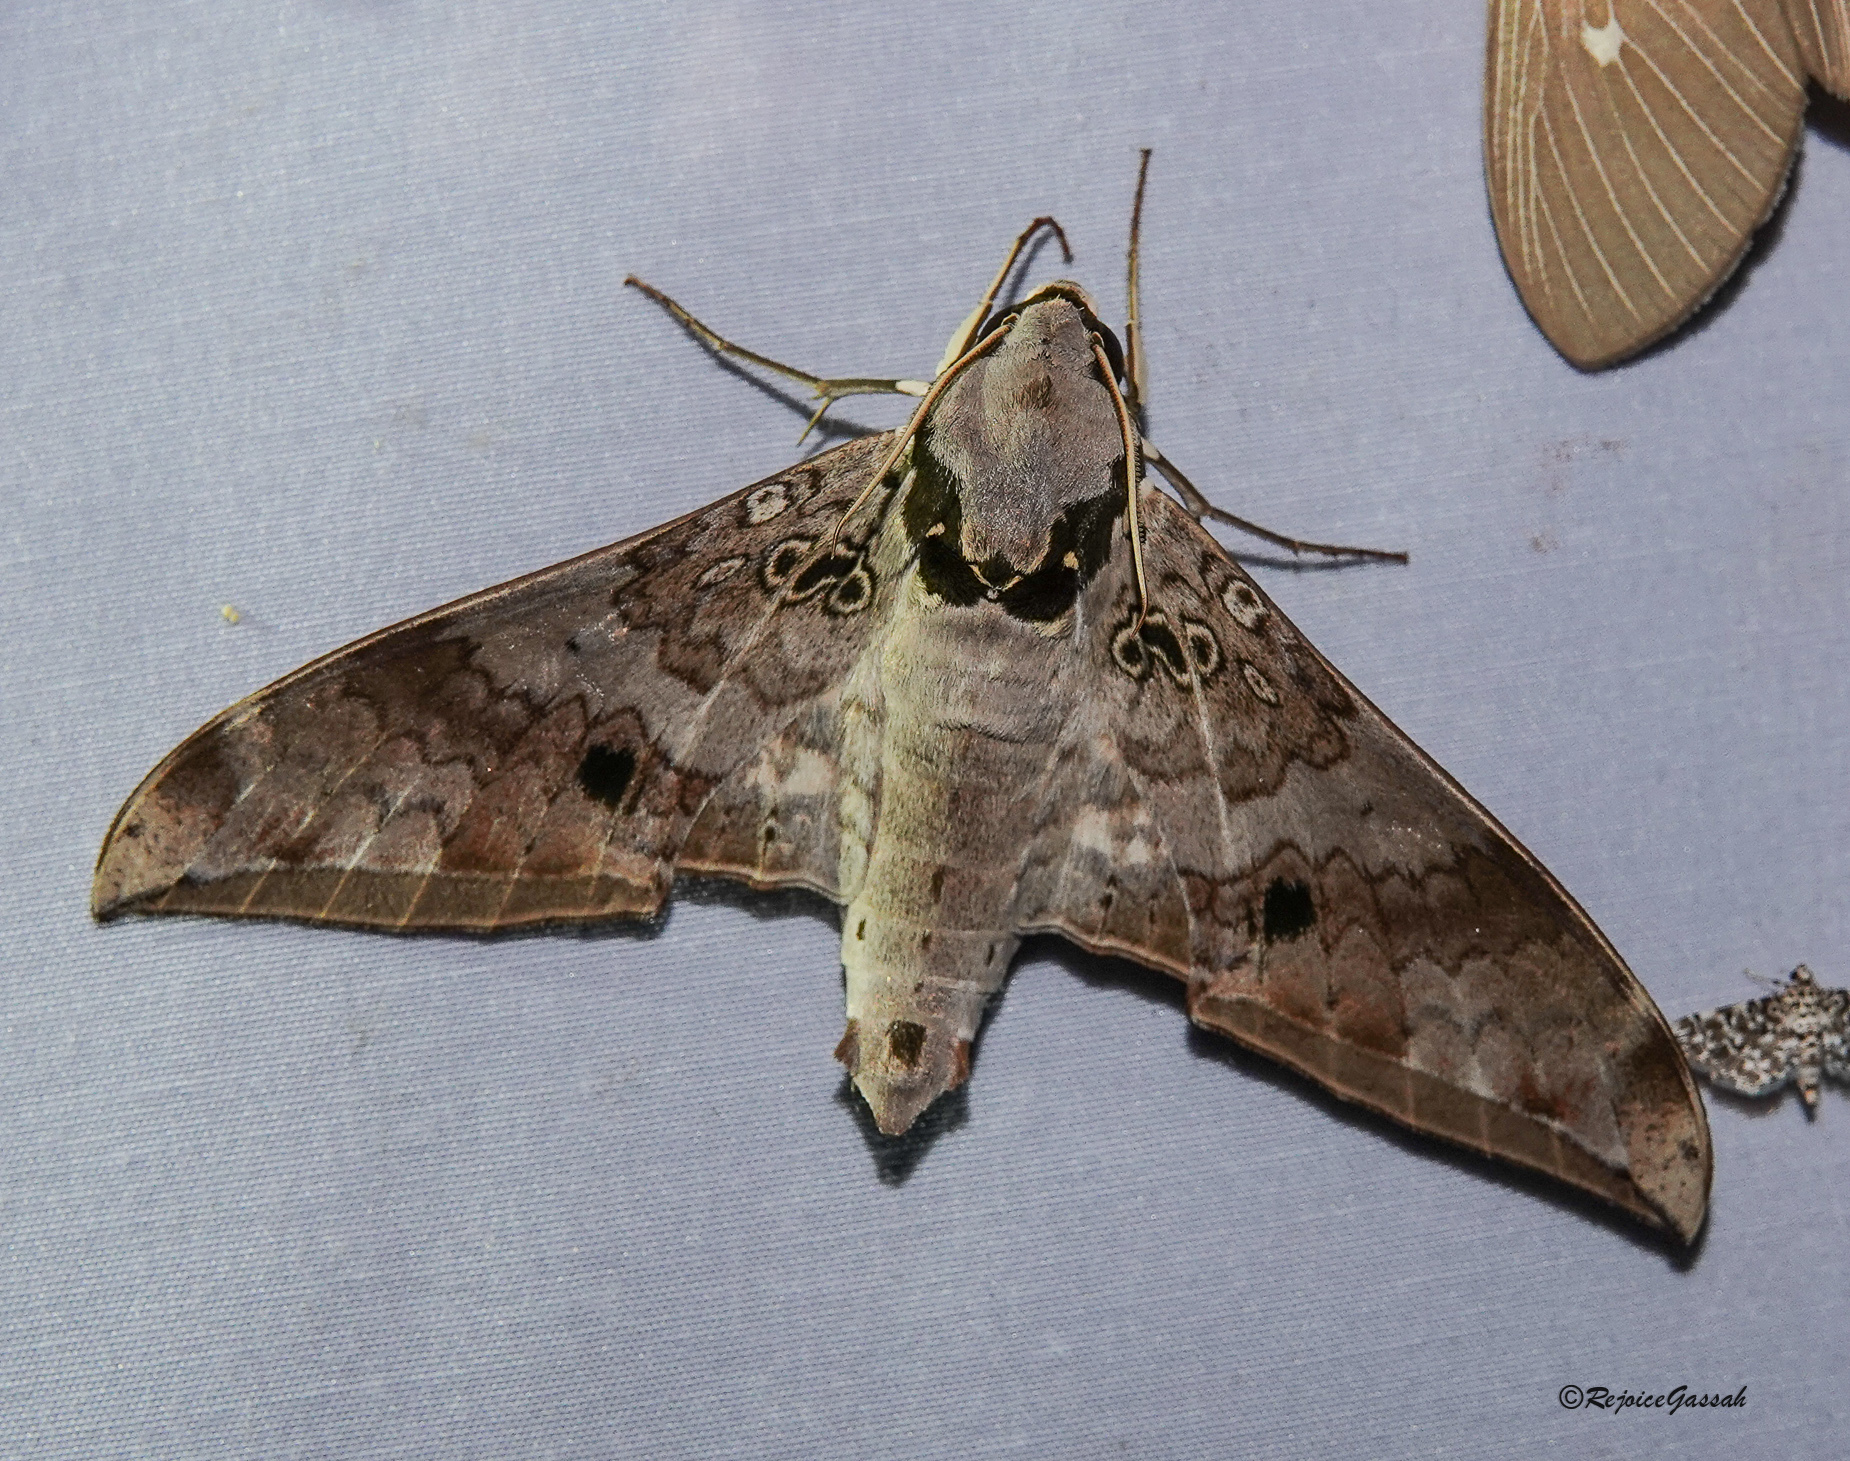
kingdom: Animalia
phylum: Arthropoda
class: Insecta
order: Lepidoptera
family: Sphingidae
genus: Ambulyx
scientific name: Ambulyx canescens
